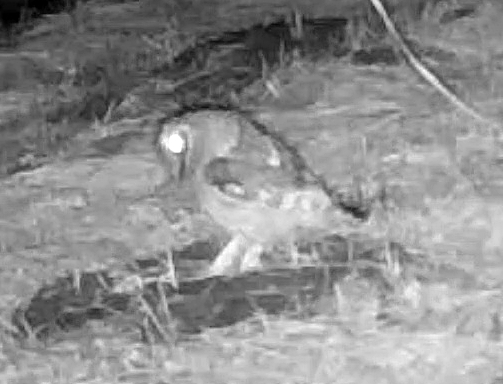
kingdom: Animalia
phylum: Chordata
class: Aves
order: Strigiformes
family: Strigidae
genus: Megascops
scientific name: Megascops asio
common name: Eastern screech-owl
